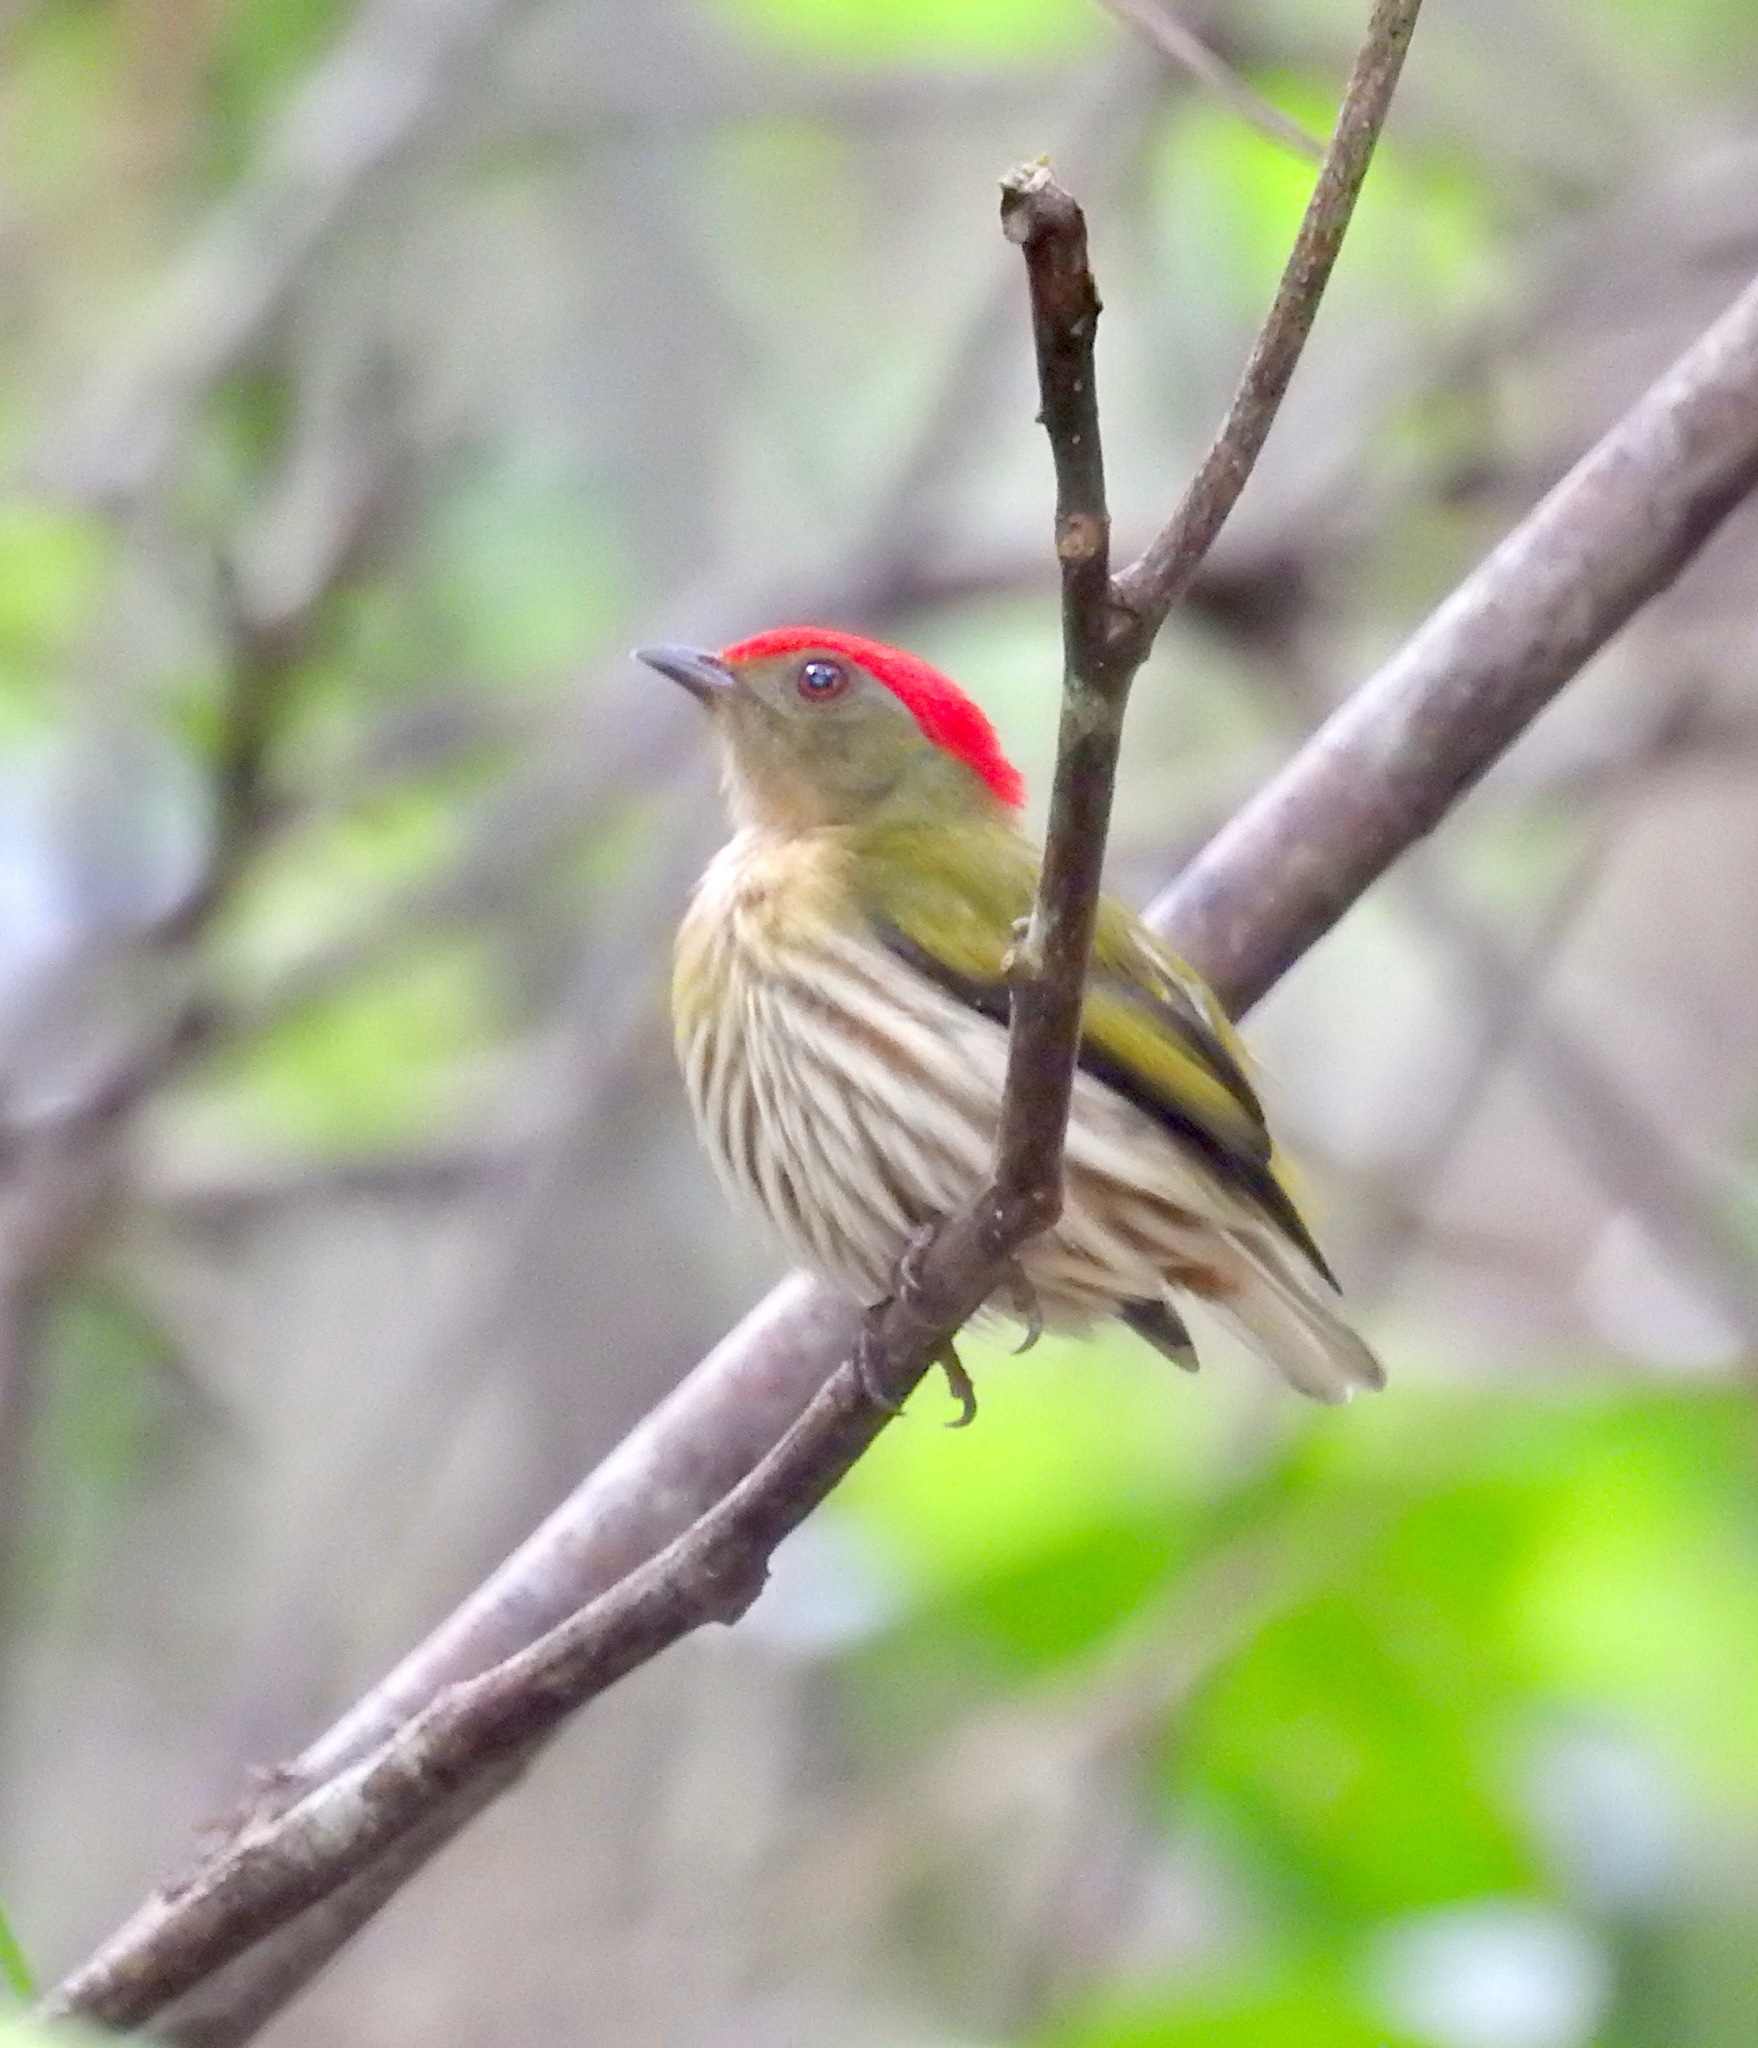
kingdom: Animalia
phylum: Chordata
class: Aves
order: Passeriformes
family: Pipridae
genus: Machaeropterus
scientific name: Machaeropterus regulus
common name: Eastern striped manakin
